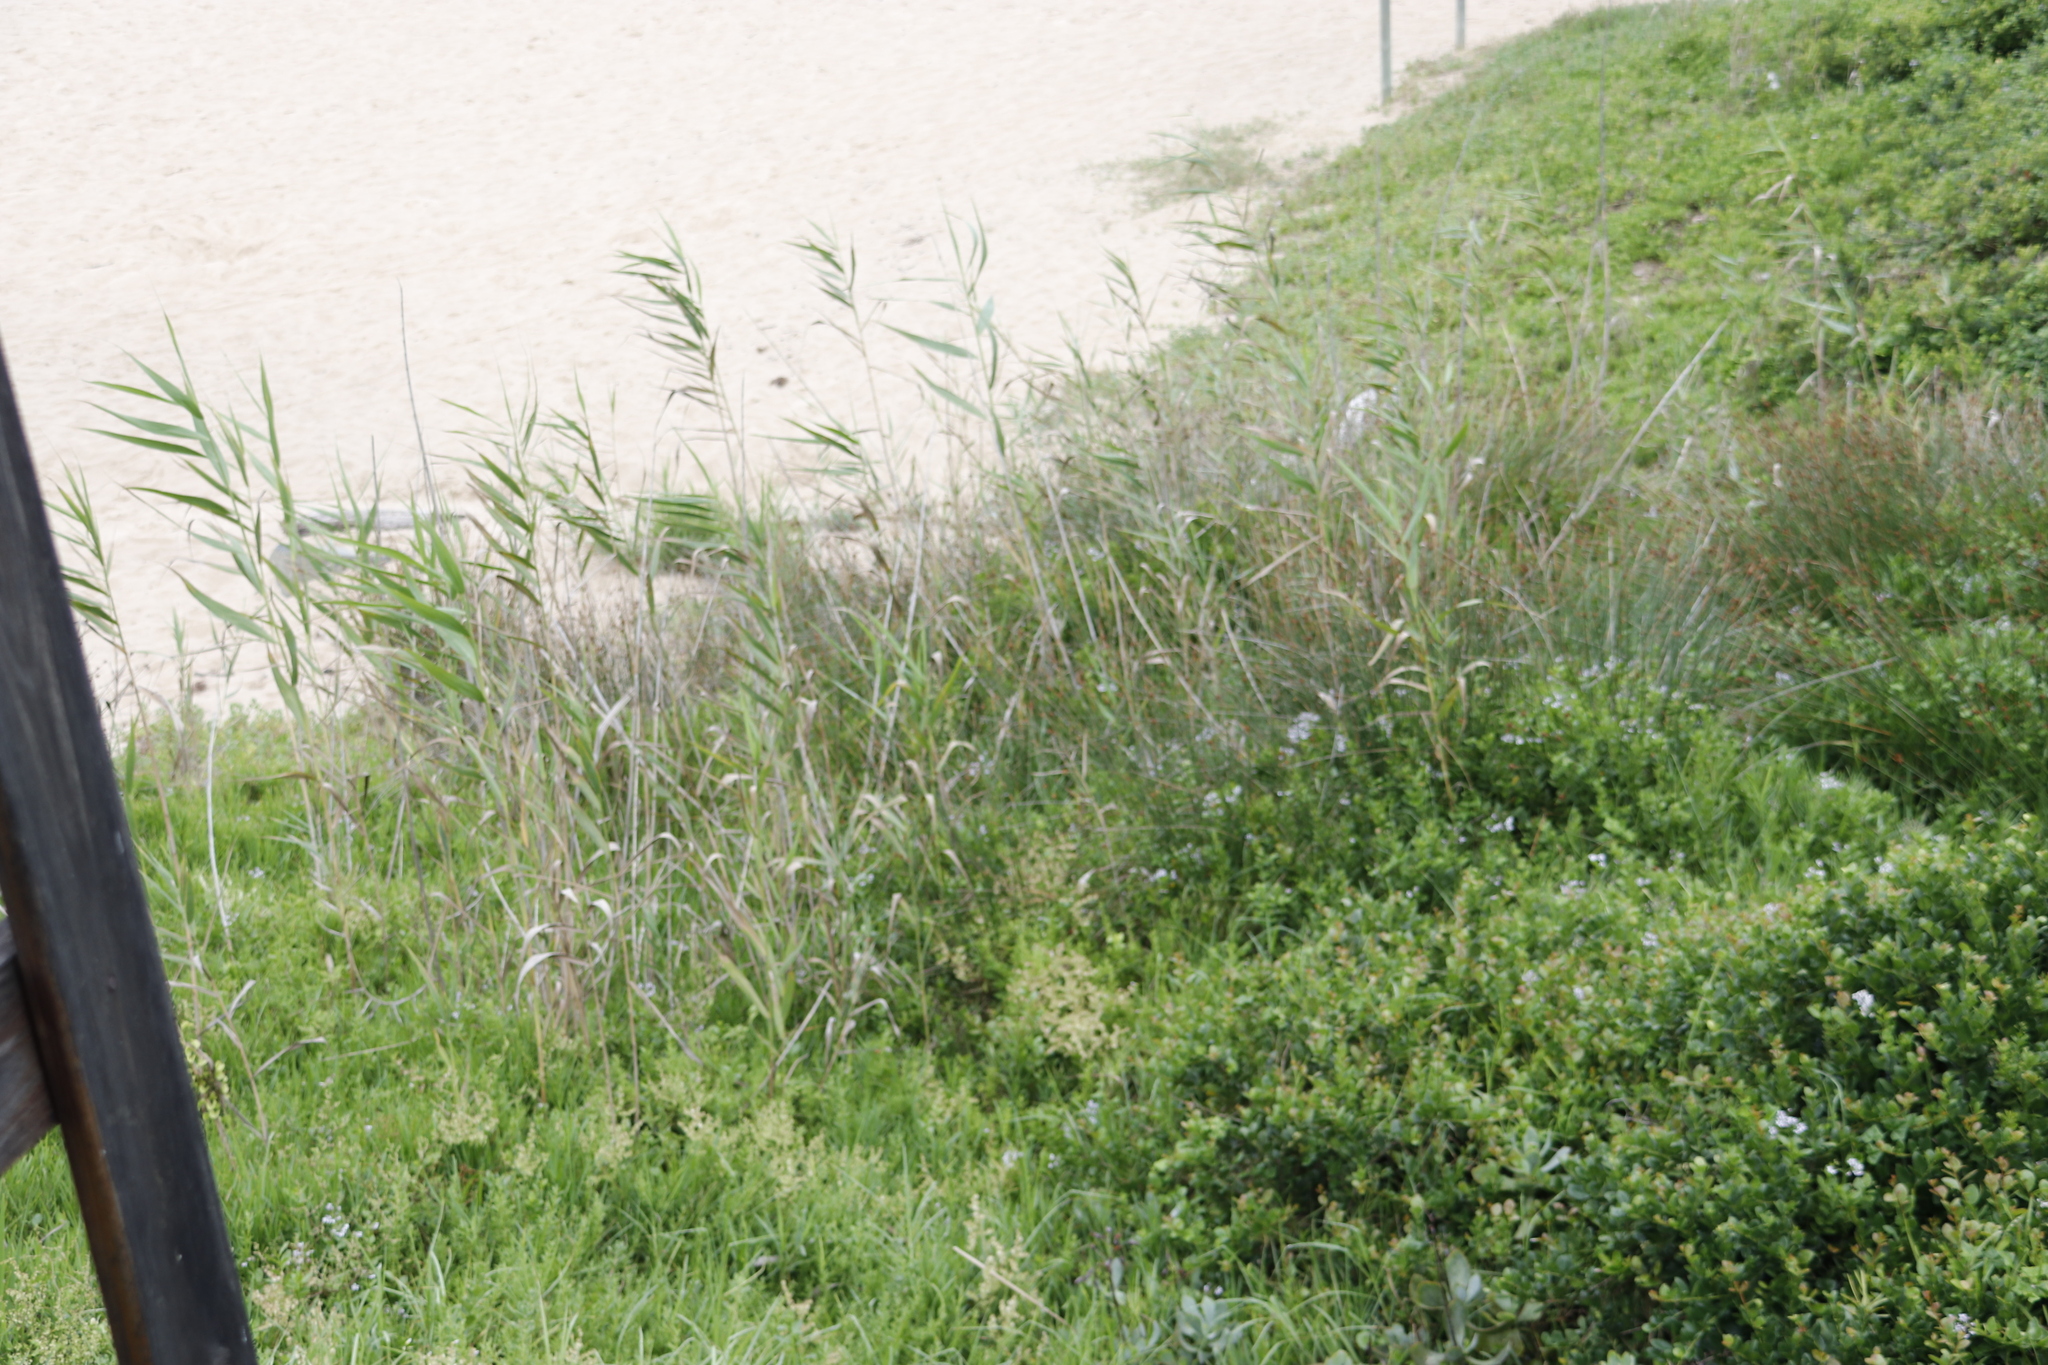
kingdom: Plantae
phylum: Tracheophyta
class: Liliopsida
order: Poales
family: Poaceae
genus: Phragmites
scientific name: Phragmites australis
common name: Common reed
